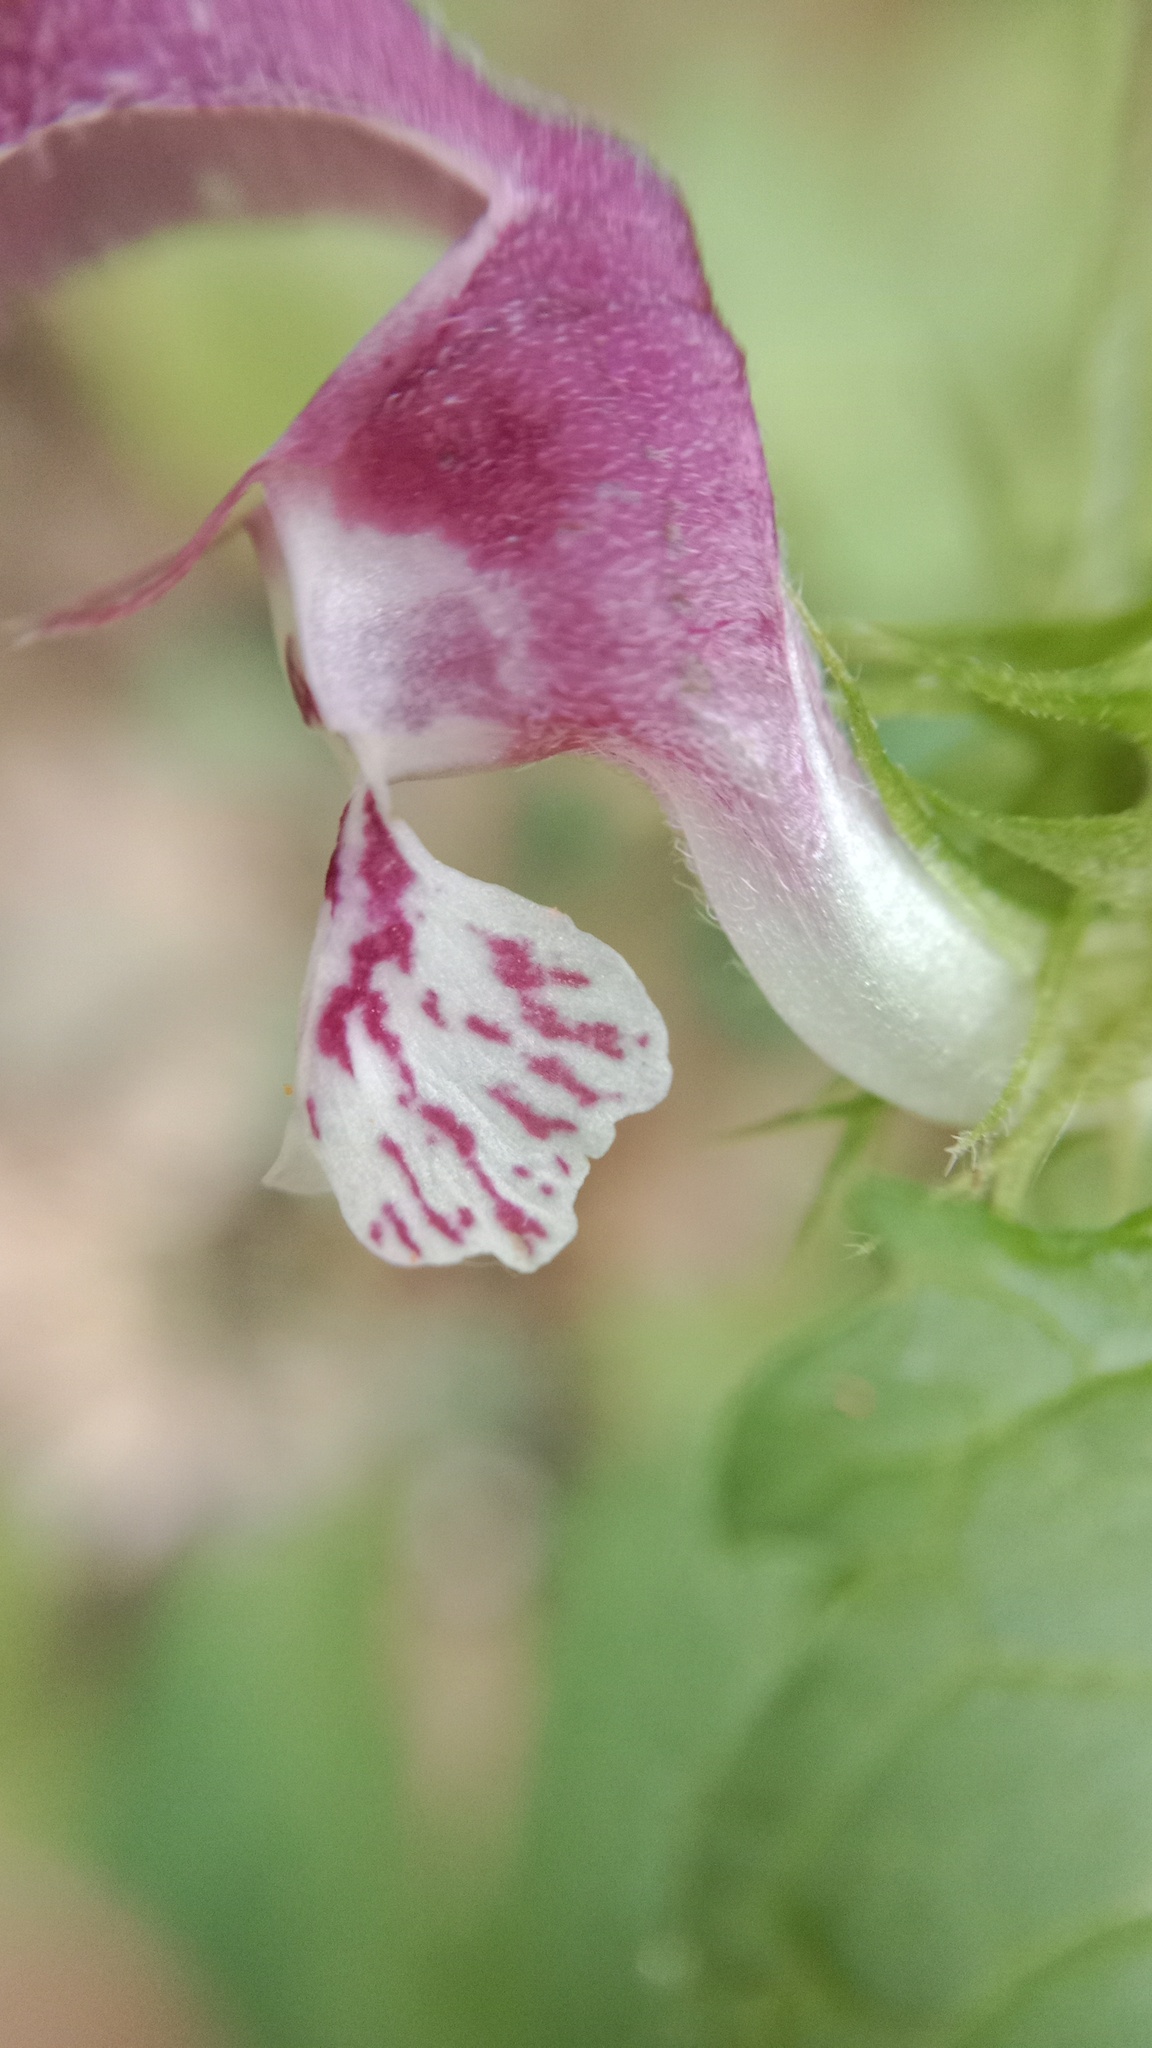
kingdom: Plantae
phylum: Tracheophyta
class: Magnoliopsida
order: Lamiales
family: Lamiaceae
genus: Lamium
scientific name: Lamium maculatum
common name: Spotted dead-nettle
